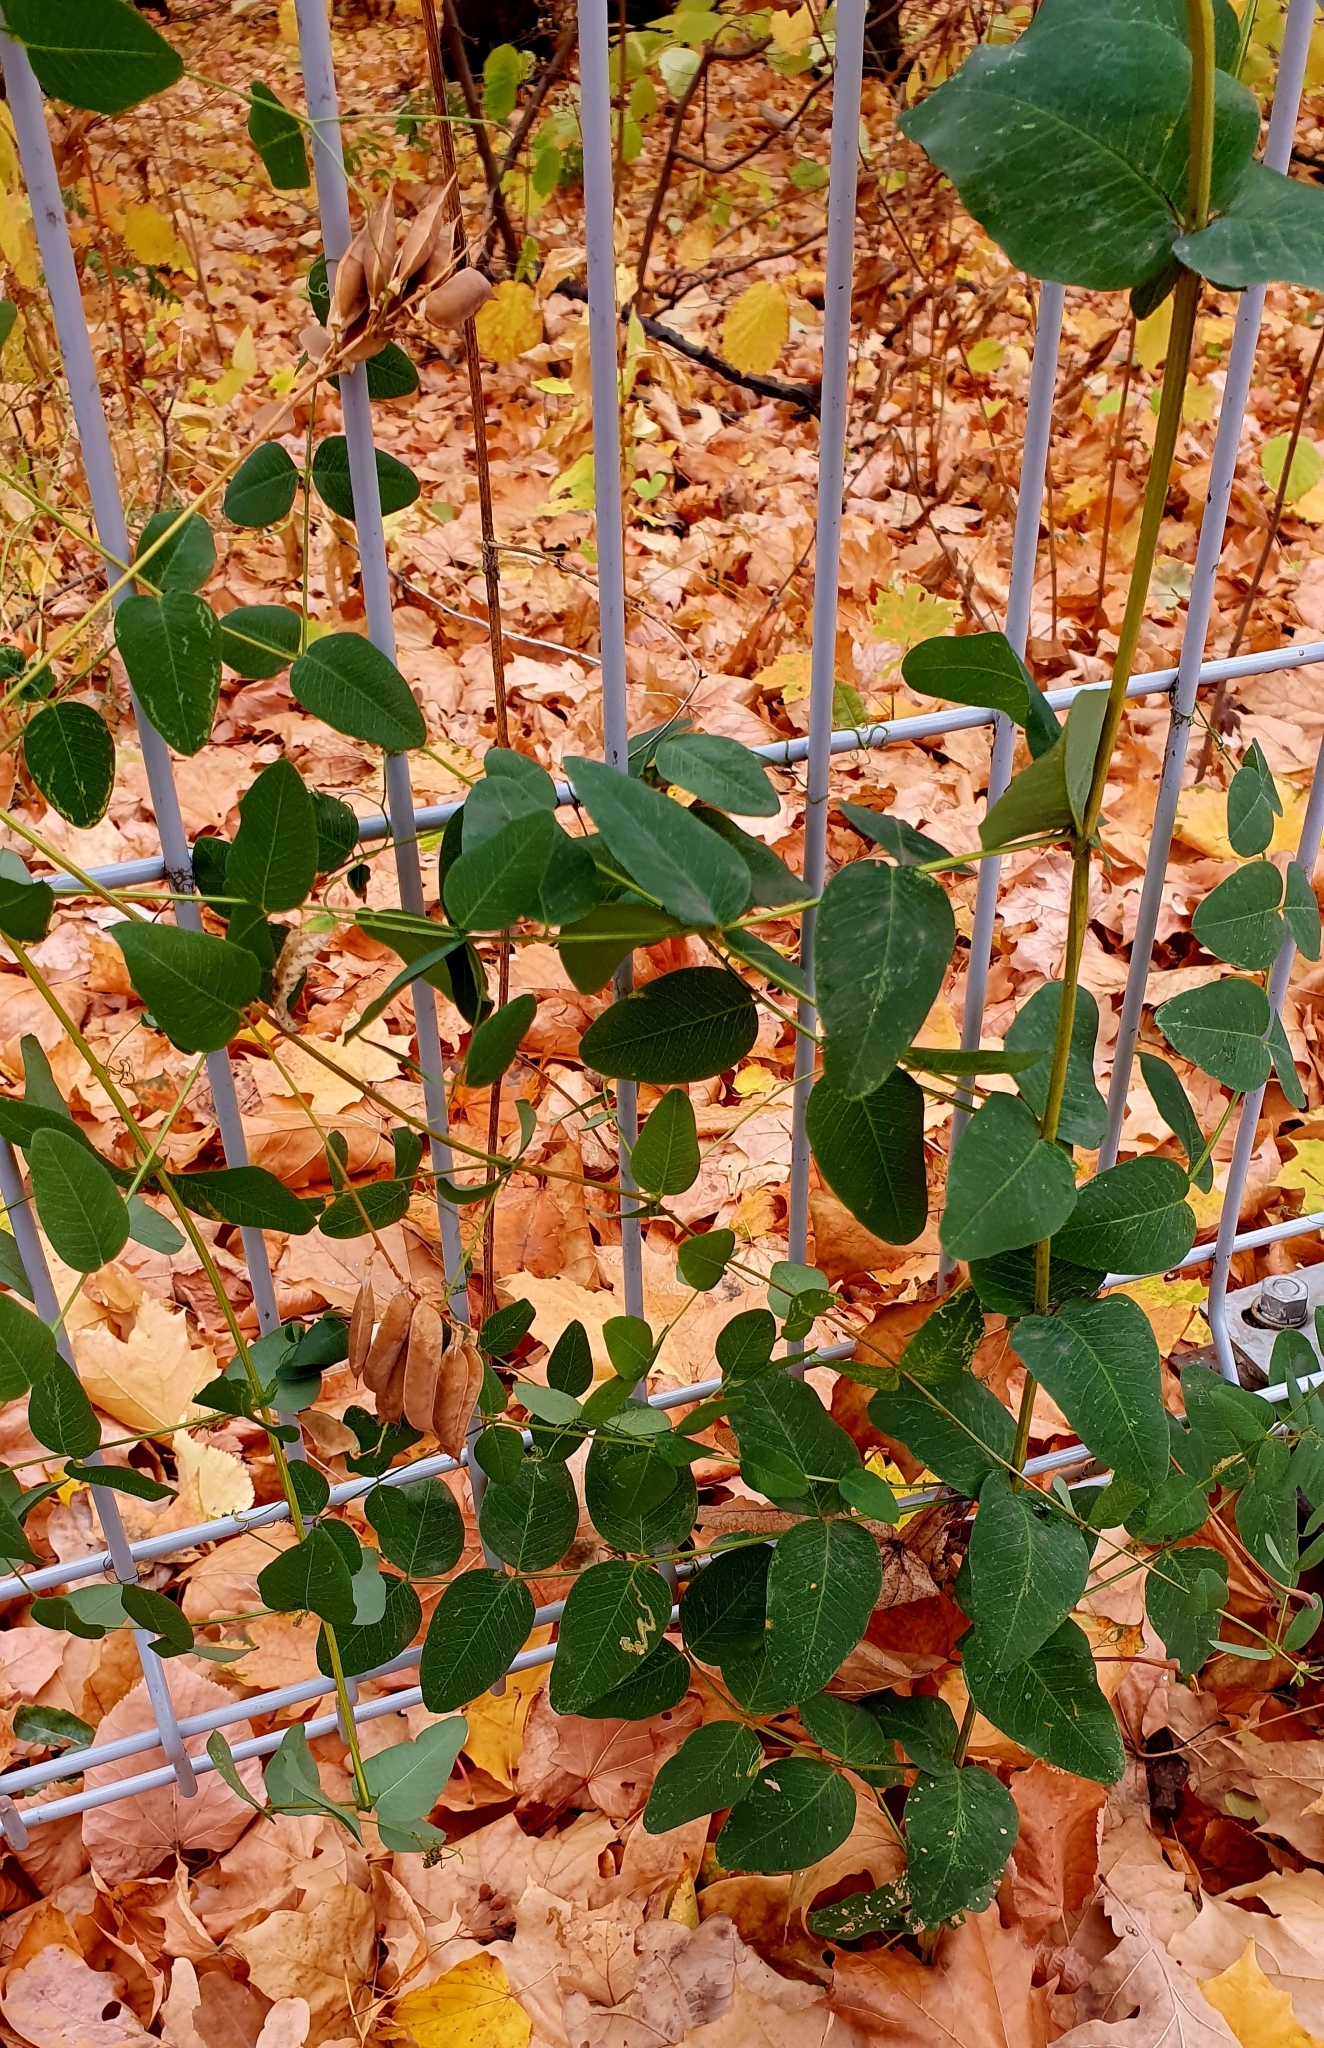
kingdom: Plantae
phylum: Tracheophyta
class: Magnoliopsida
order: Fabales
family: Fabaceae
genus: Vicia
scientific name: Vicia pisiformis
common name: Pale-flower vetch
